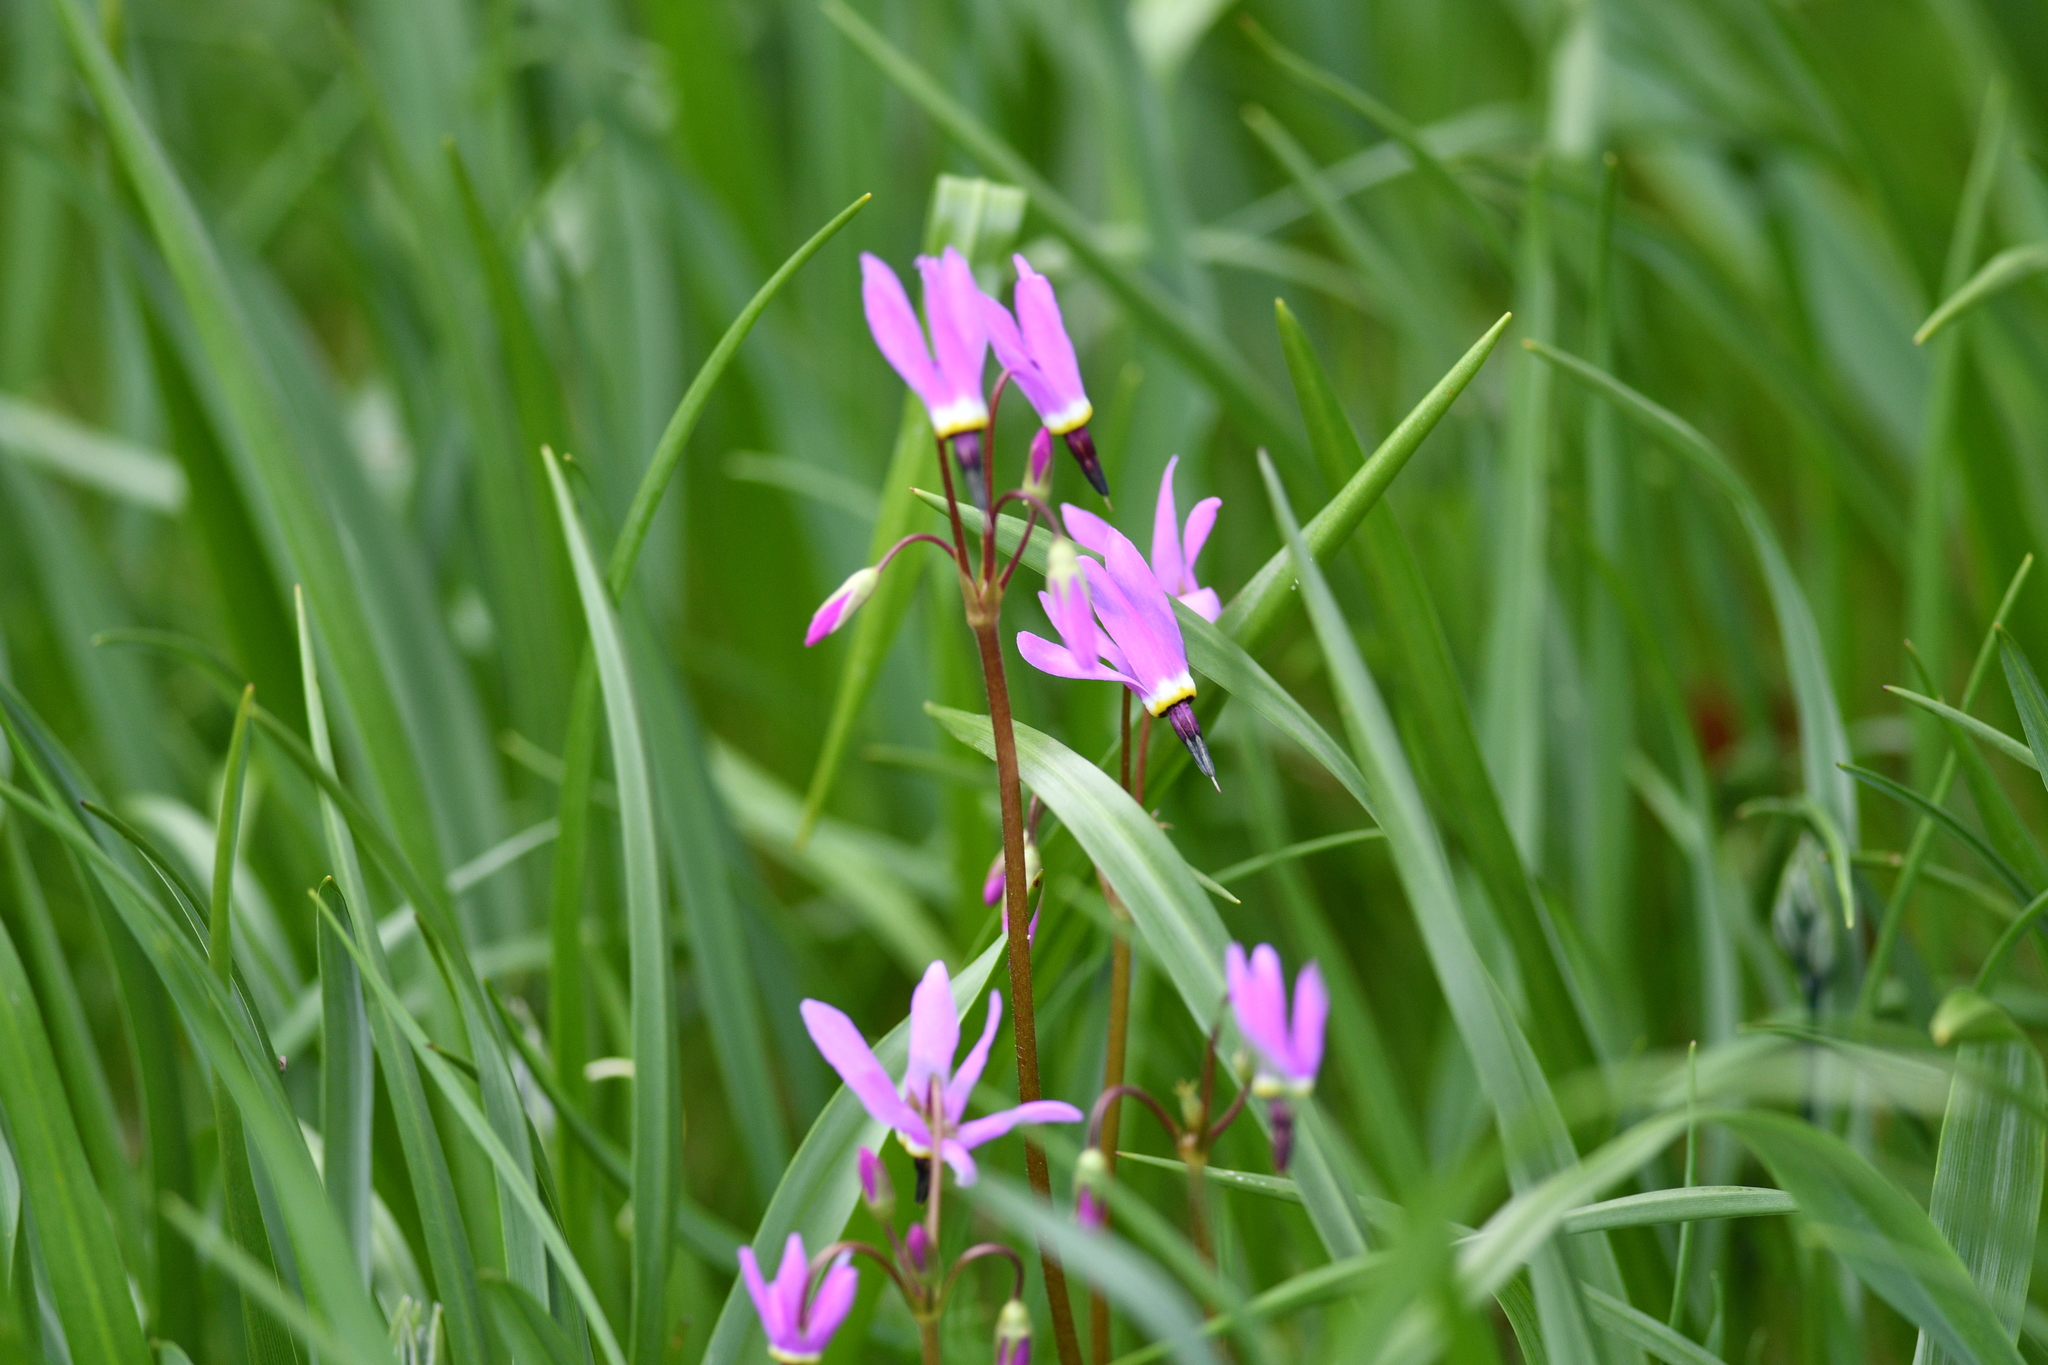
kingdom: Plantae
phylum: Tracheophyta
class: Magnoliopsida
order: Ericales
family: Primulaceae
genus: Dodecatheon
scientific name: Dodecatheon hendersonii
